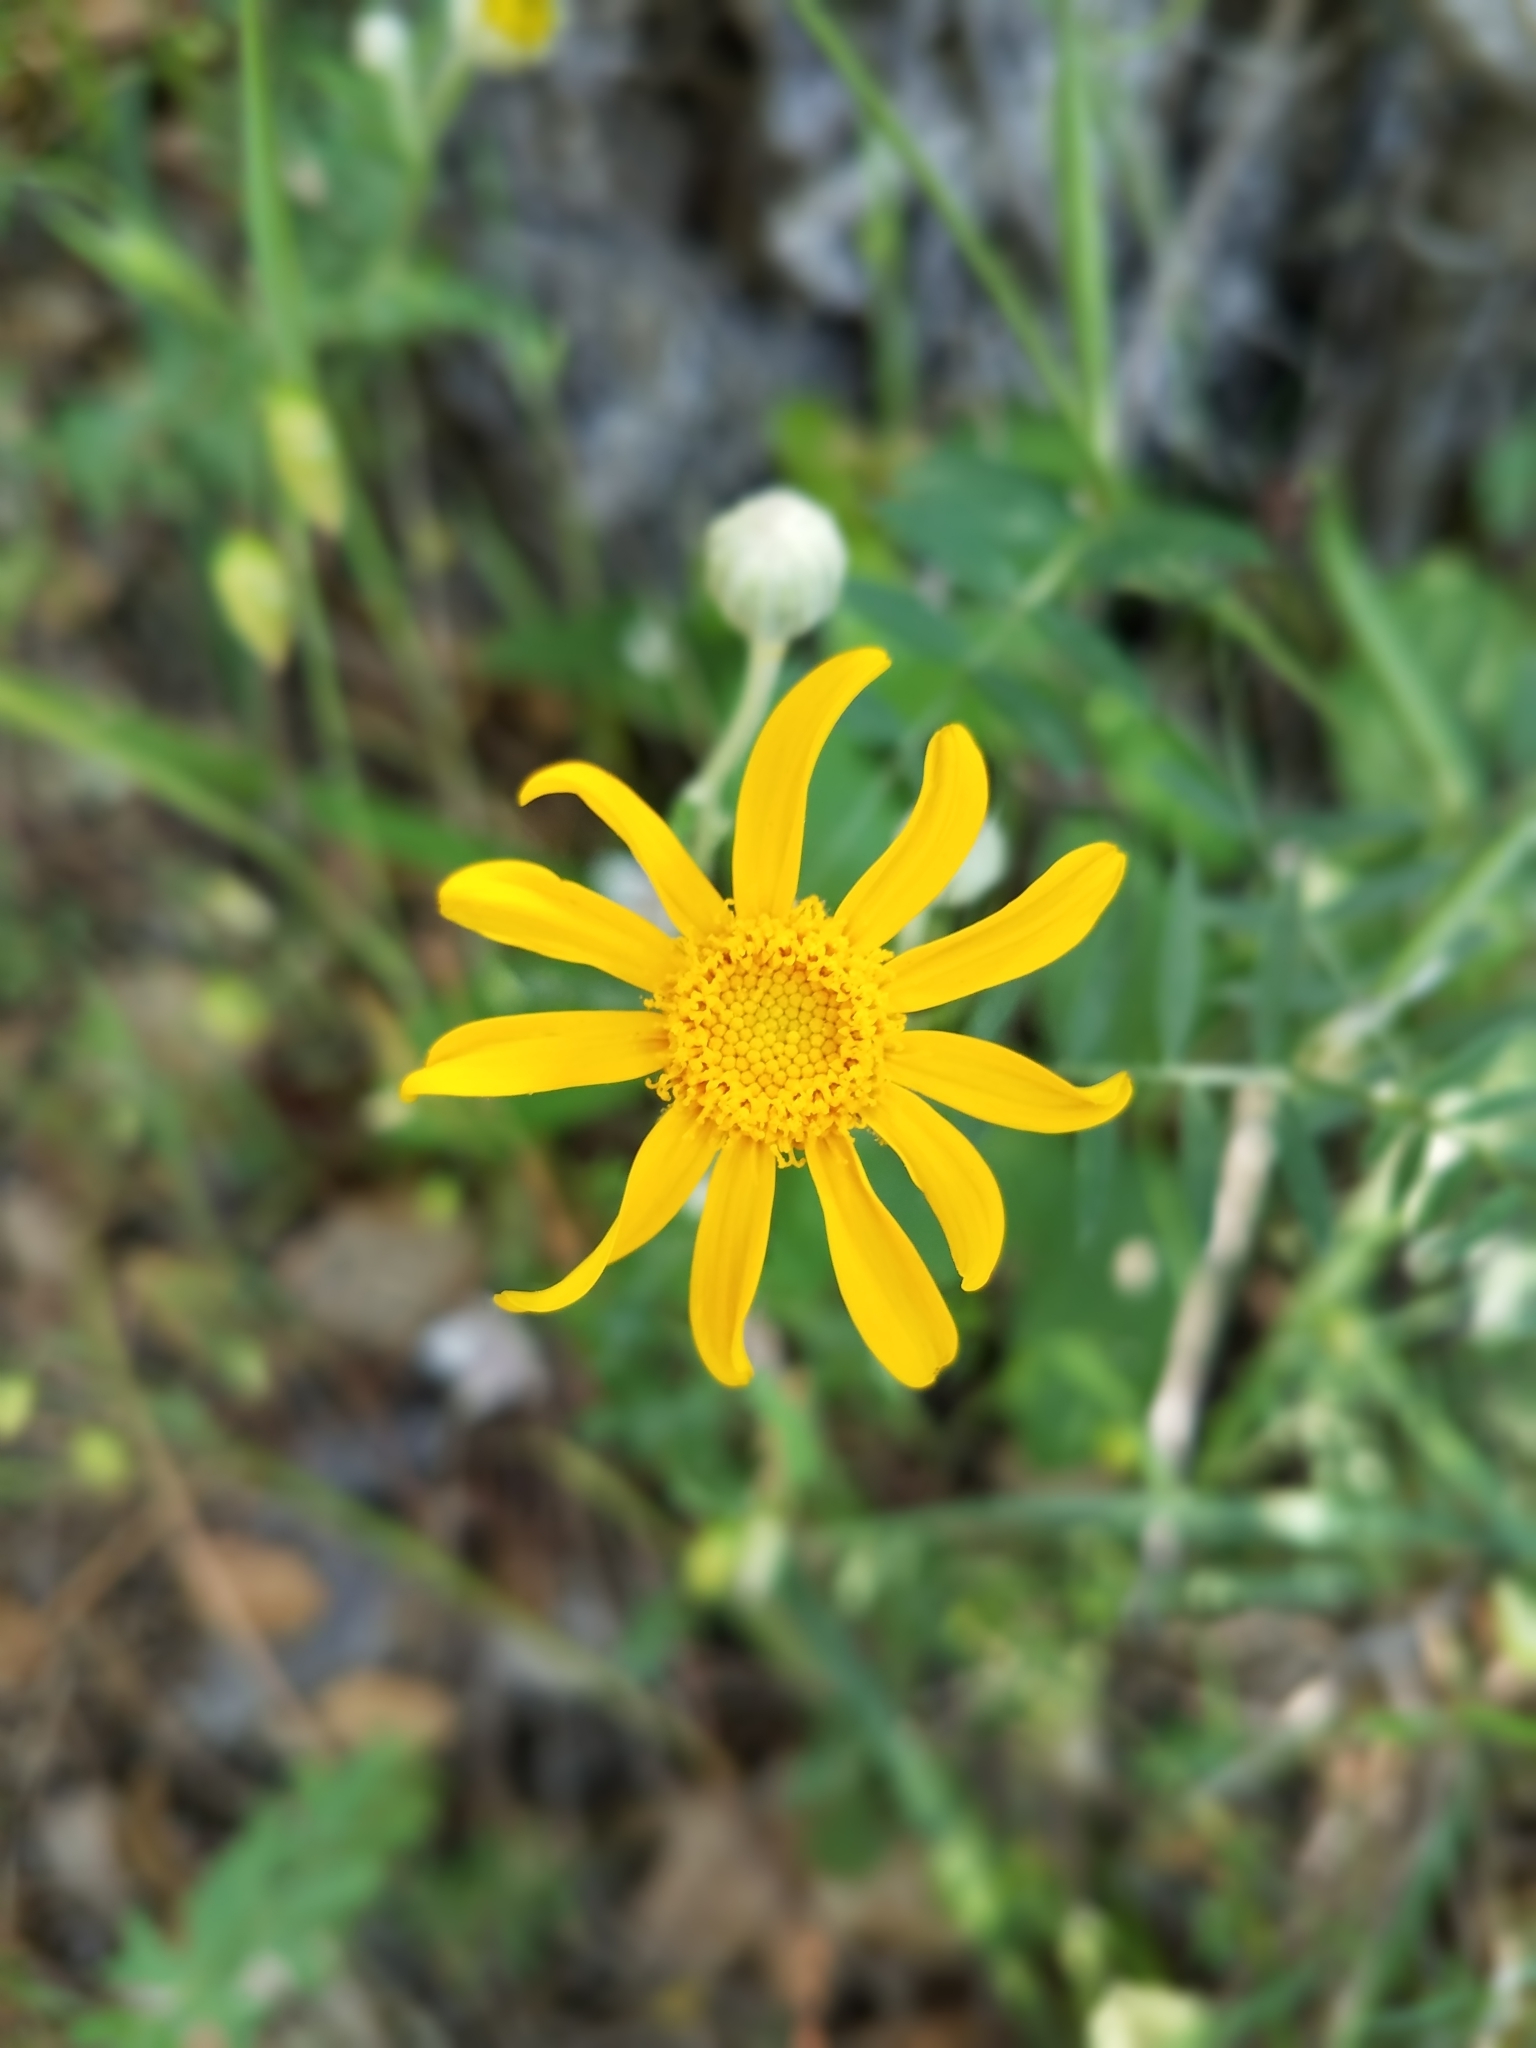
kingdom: Plantae
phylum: Tracheophyta
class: Magnoliopsida
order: Asterales
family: Asteraceae
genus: Eriophyllum
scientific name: Eriophyllum lanatum
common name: Common woolly-sunflower
